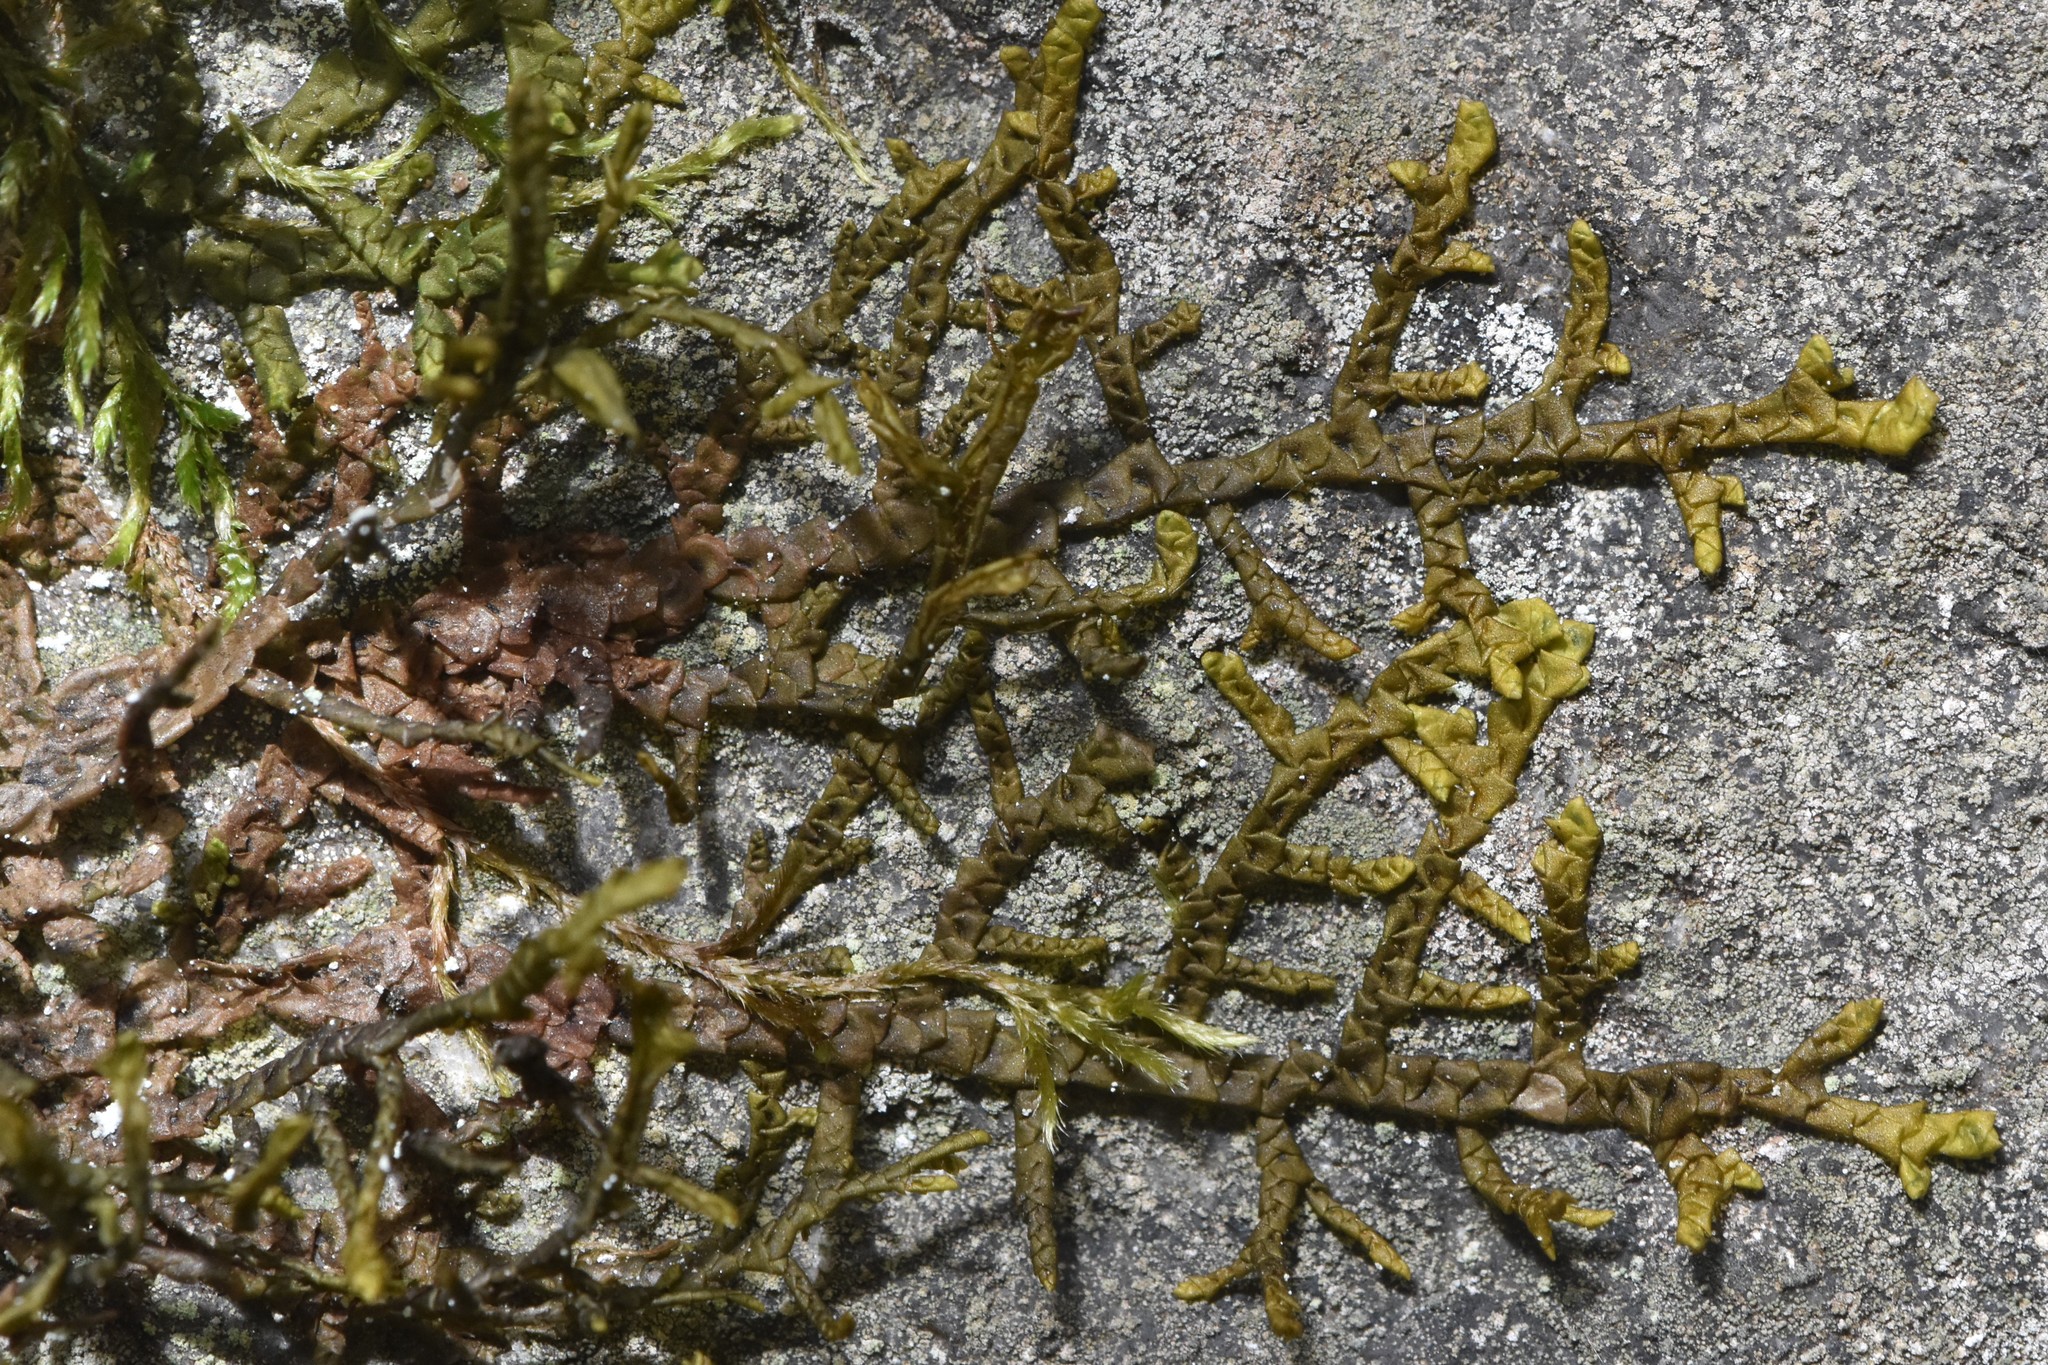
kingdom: Plantae
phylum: Marchantiophyta
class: Jungermanniopsida
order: Porellales
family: Porellaceae
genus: Porella
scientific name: Porella roellii
